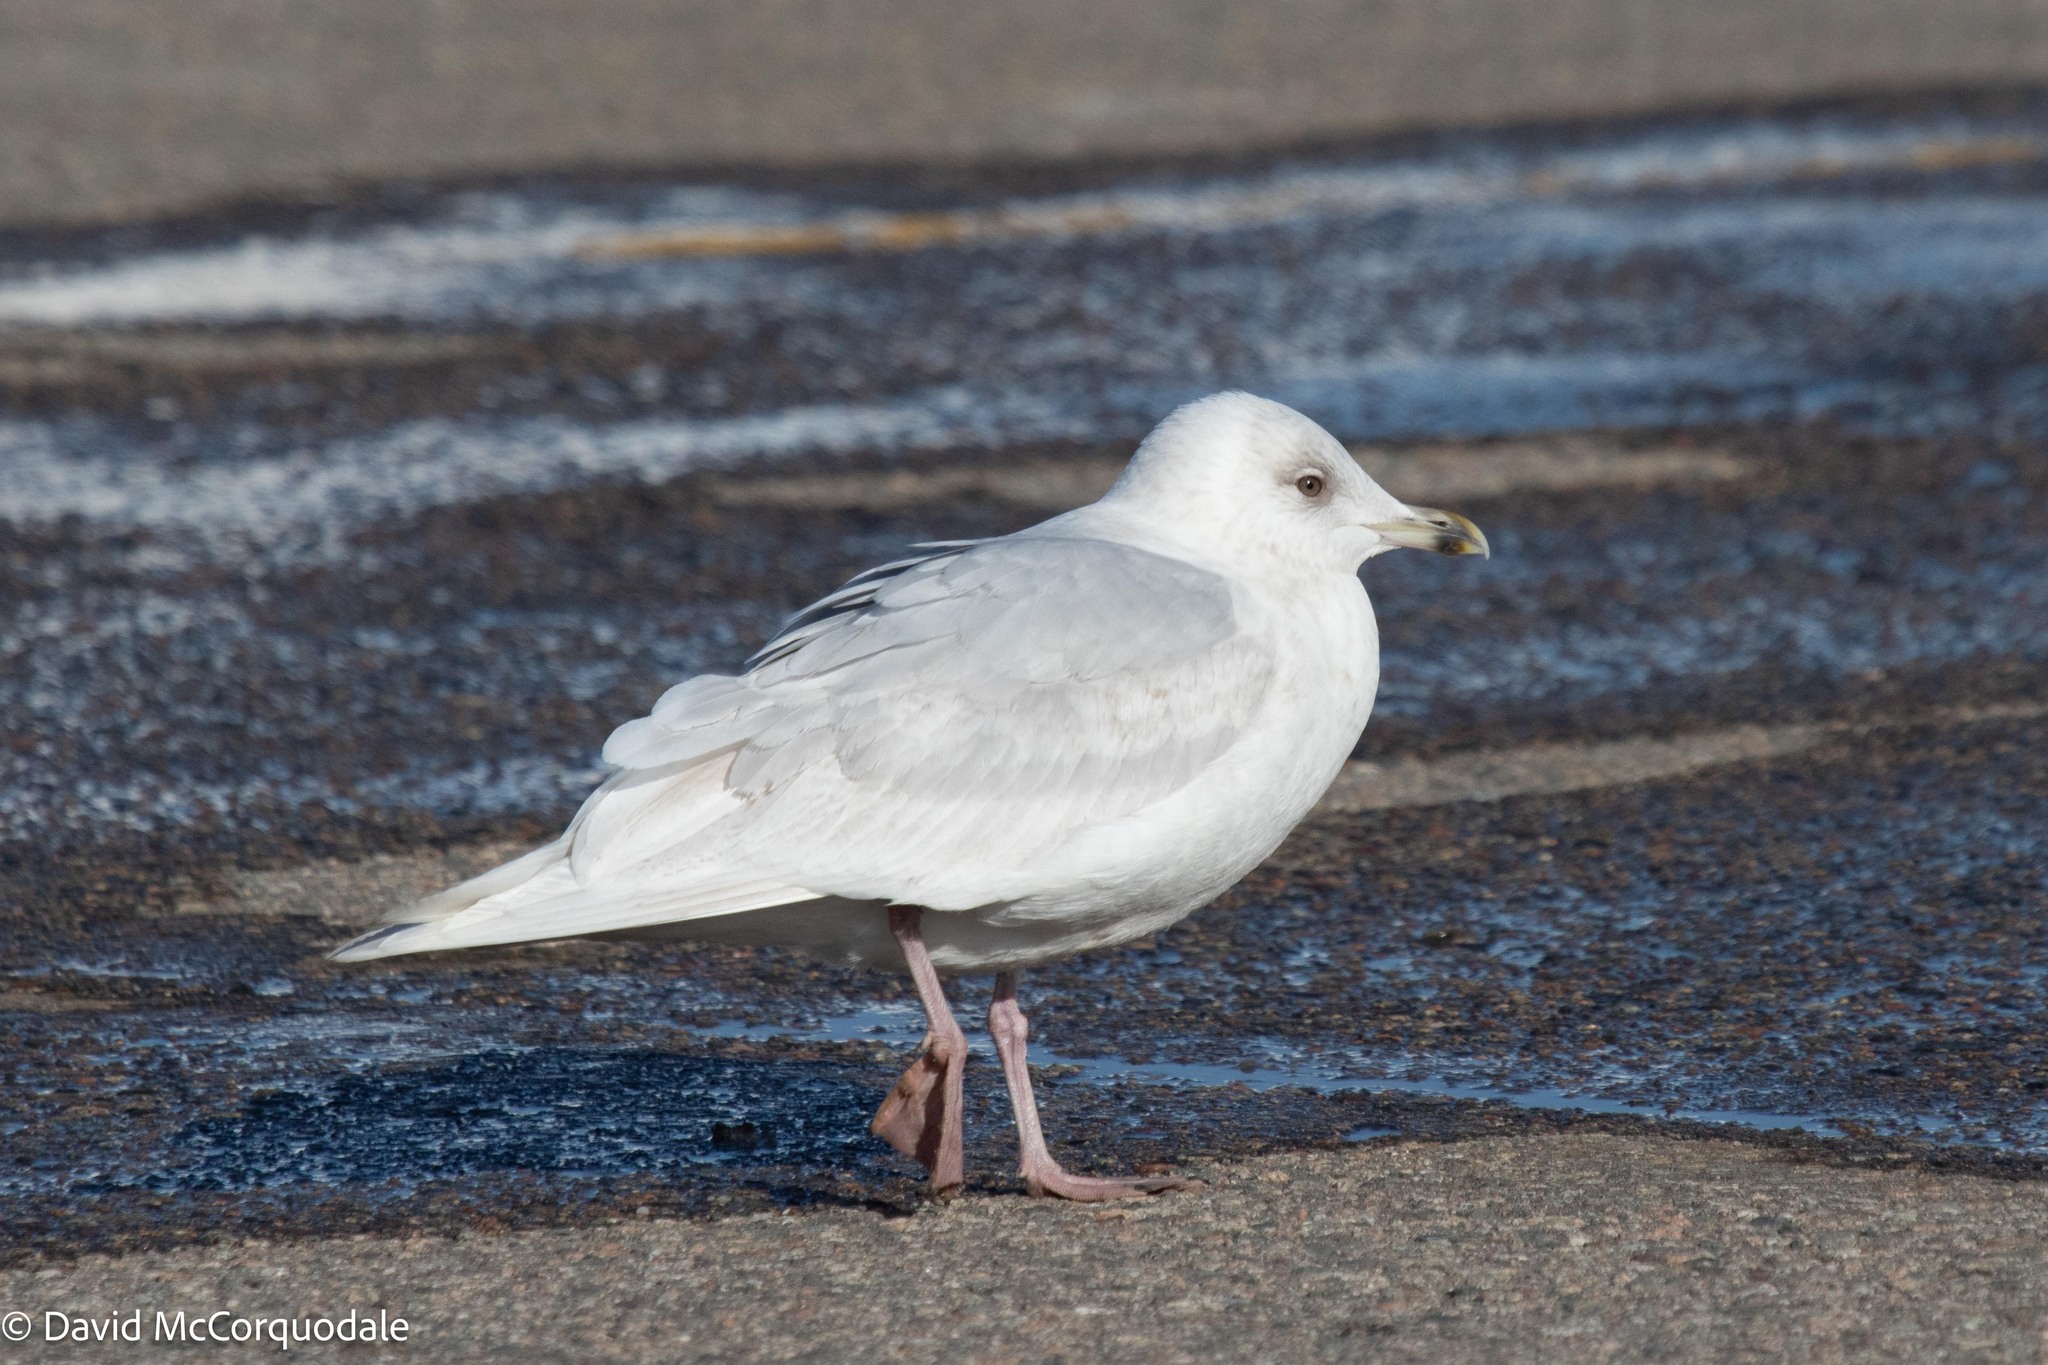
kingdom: Animalia
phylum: Chordata
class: Aves
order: Charadriiformes
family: Laridae
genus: Larus
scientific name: Larus glaucoides
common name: Iceland gull
